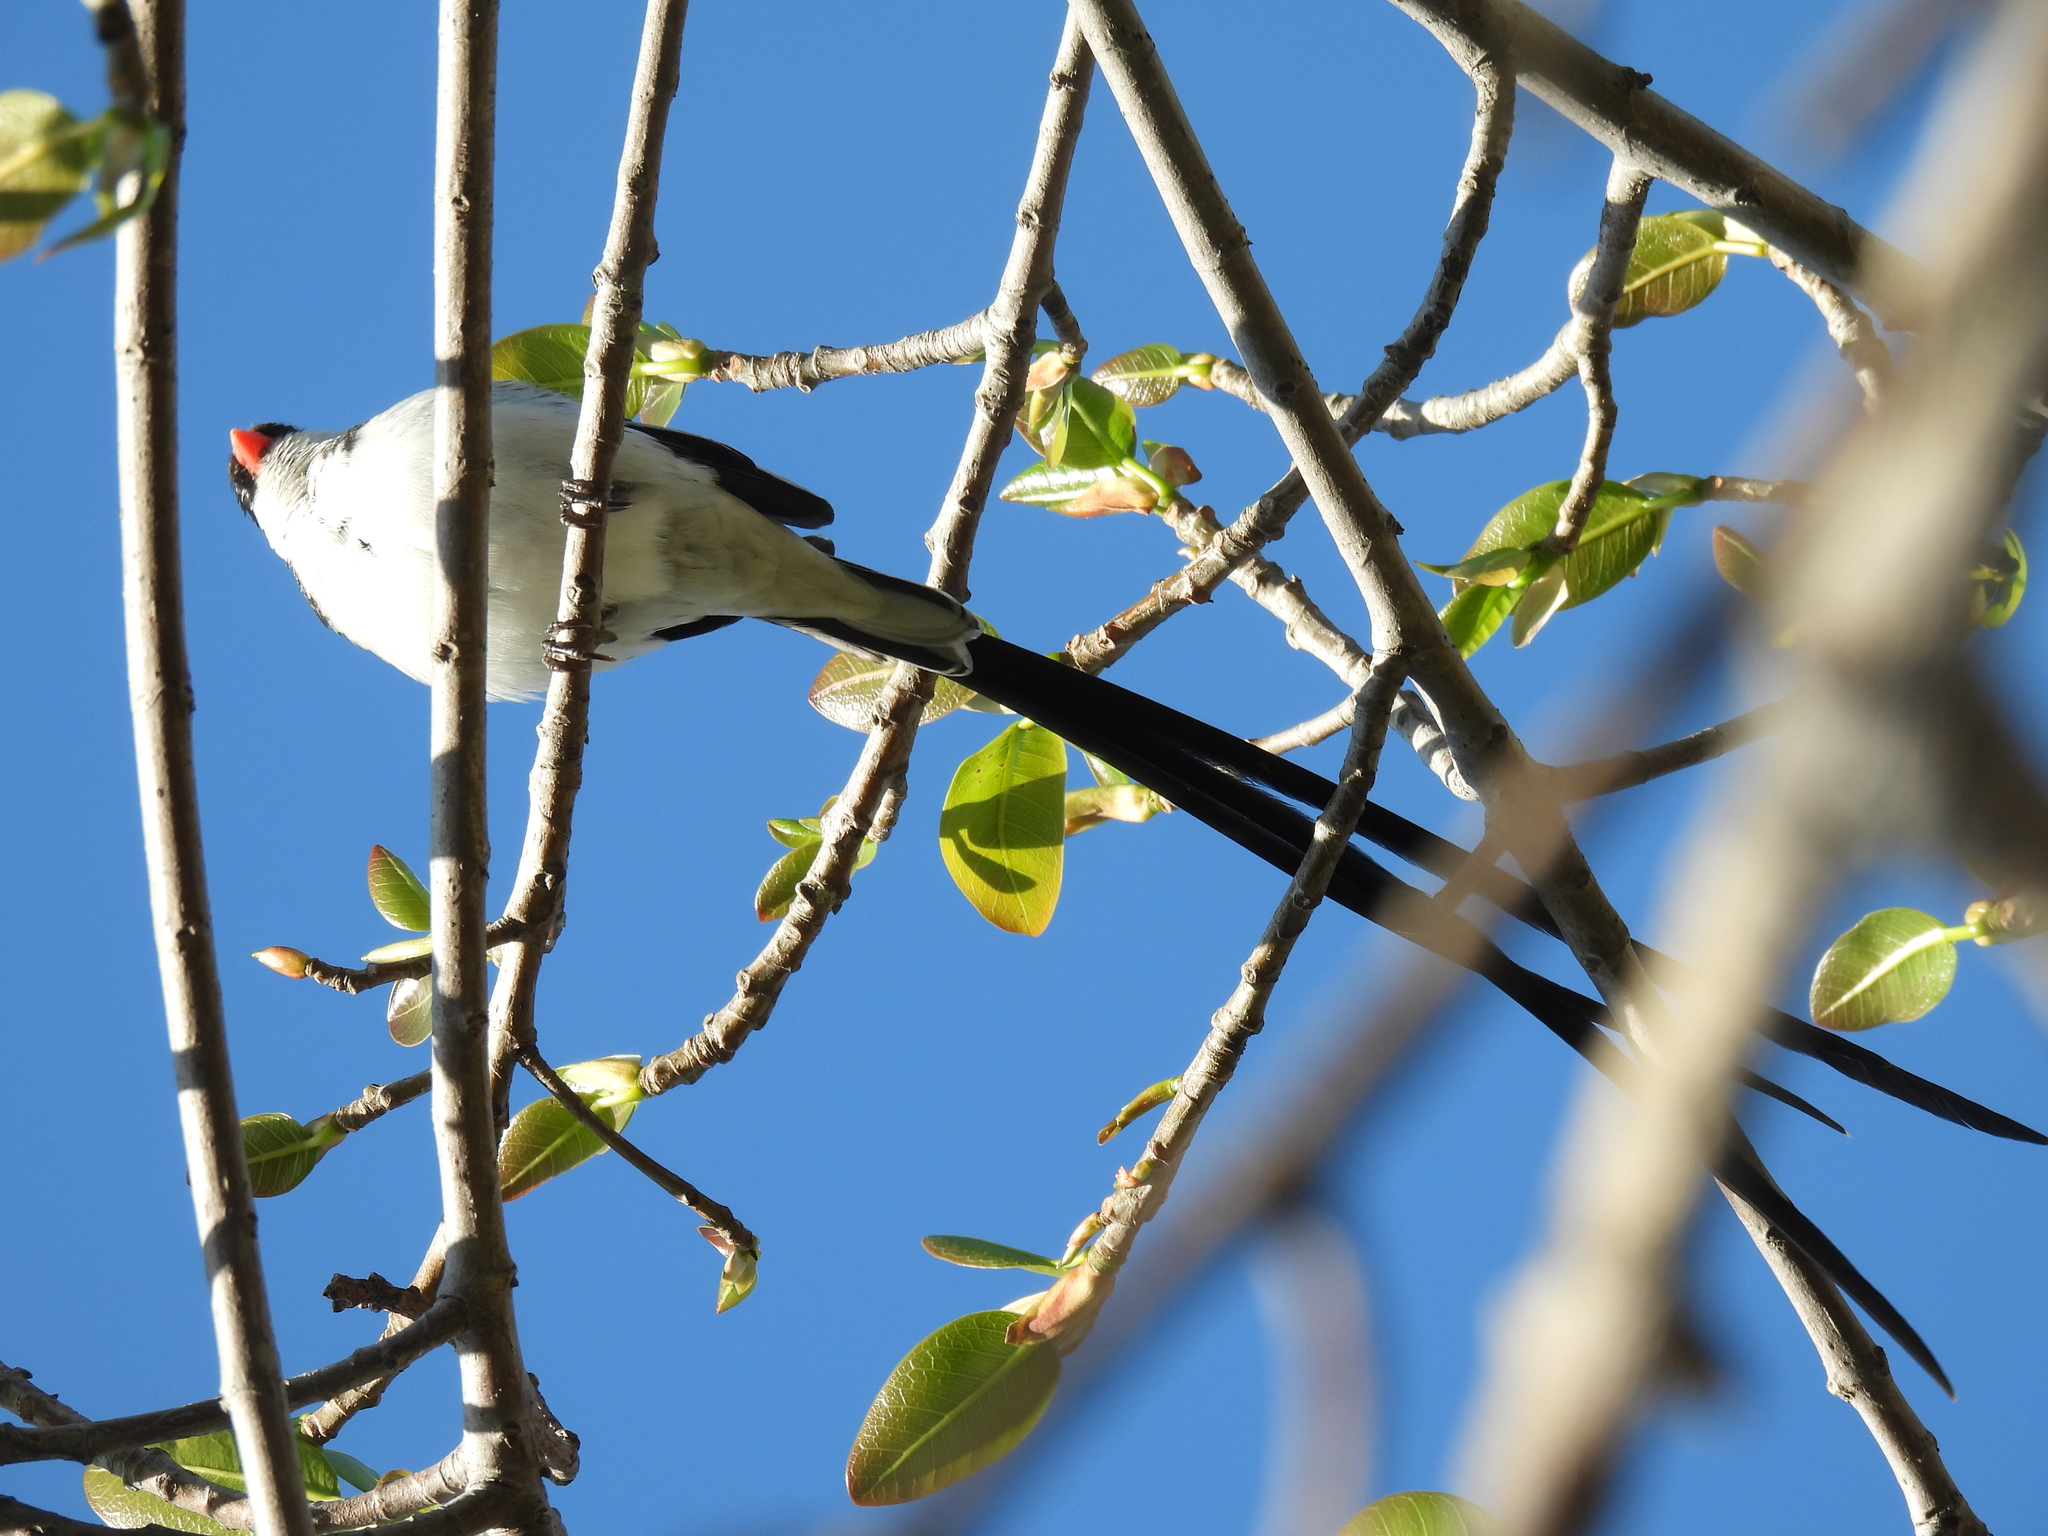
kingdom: Animalia
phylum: Chordata
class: Aves
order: Passeriformes
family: Viduidae
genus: Vidua
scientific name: Vidua macroura
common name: Pin-tailed whydah
